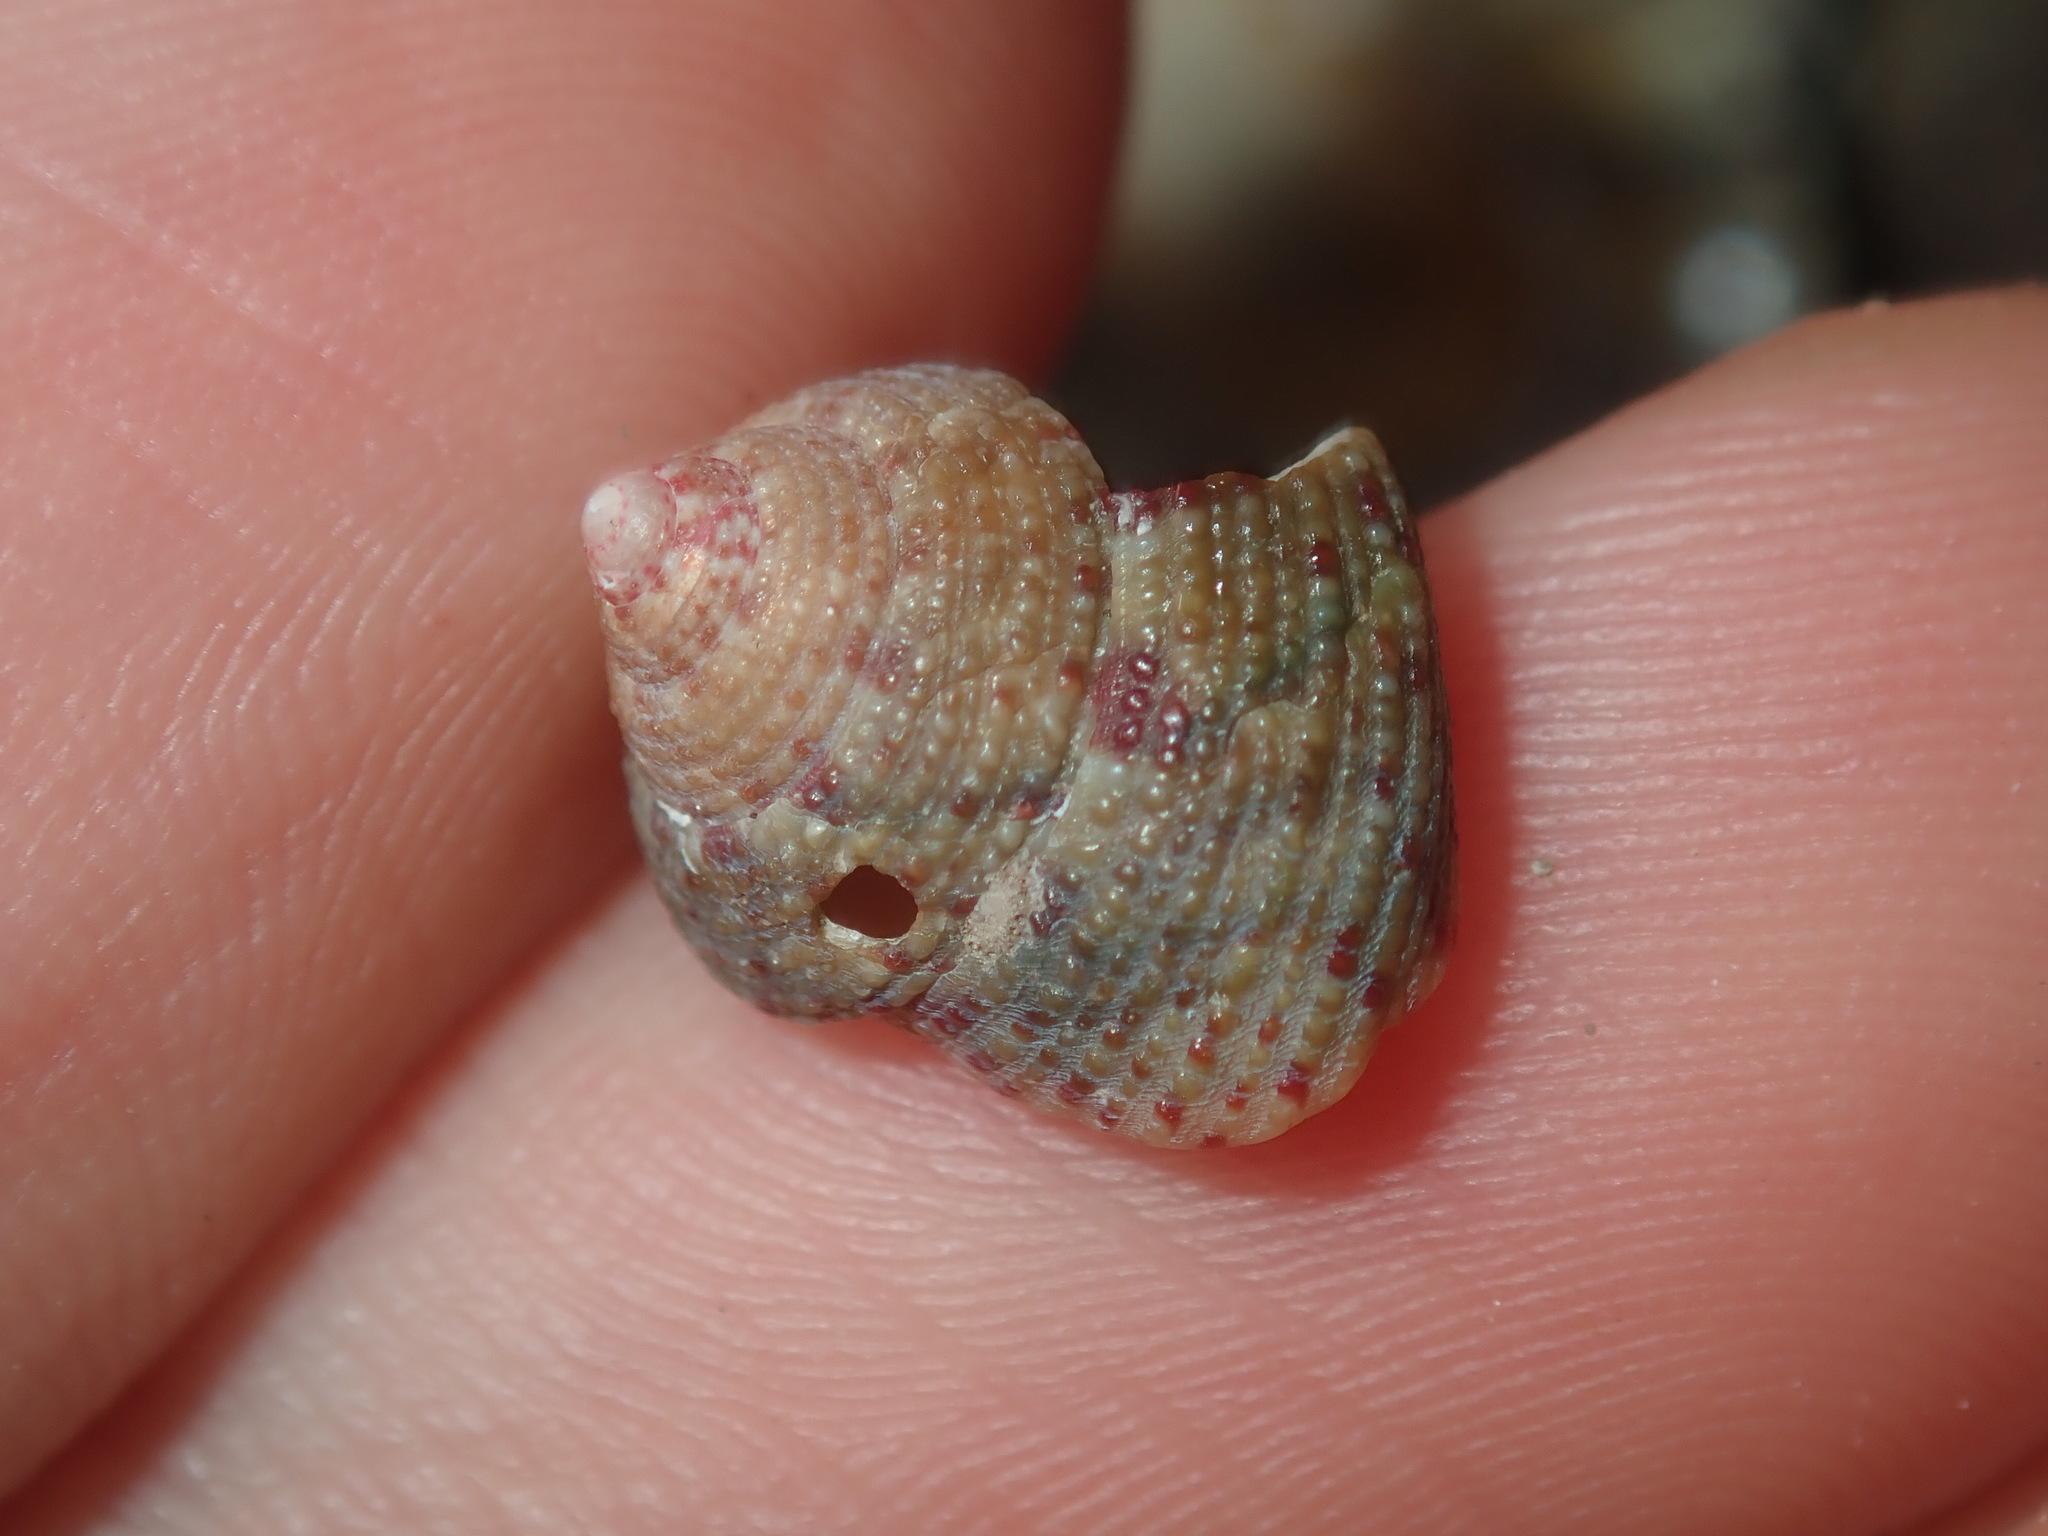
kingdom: Animalia
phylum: Mollusca
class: Gastropoda
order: Trochida
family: Trochidae
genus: Clanculus
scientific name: Clanculus clangulus
